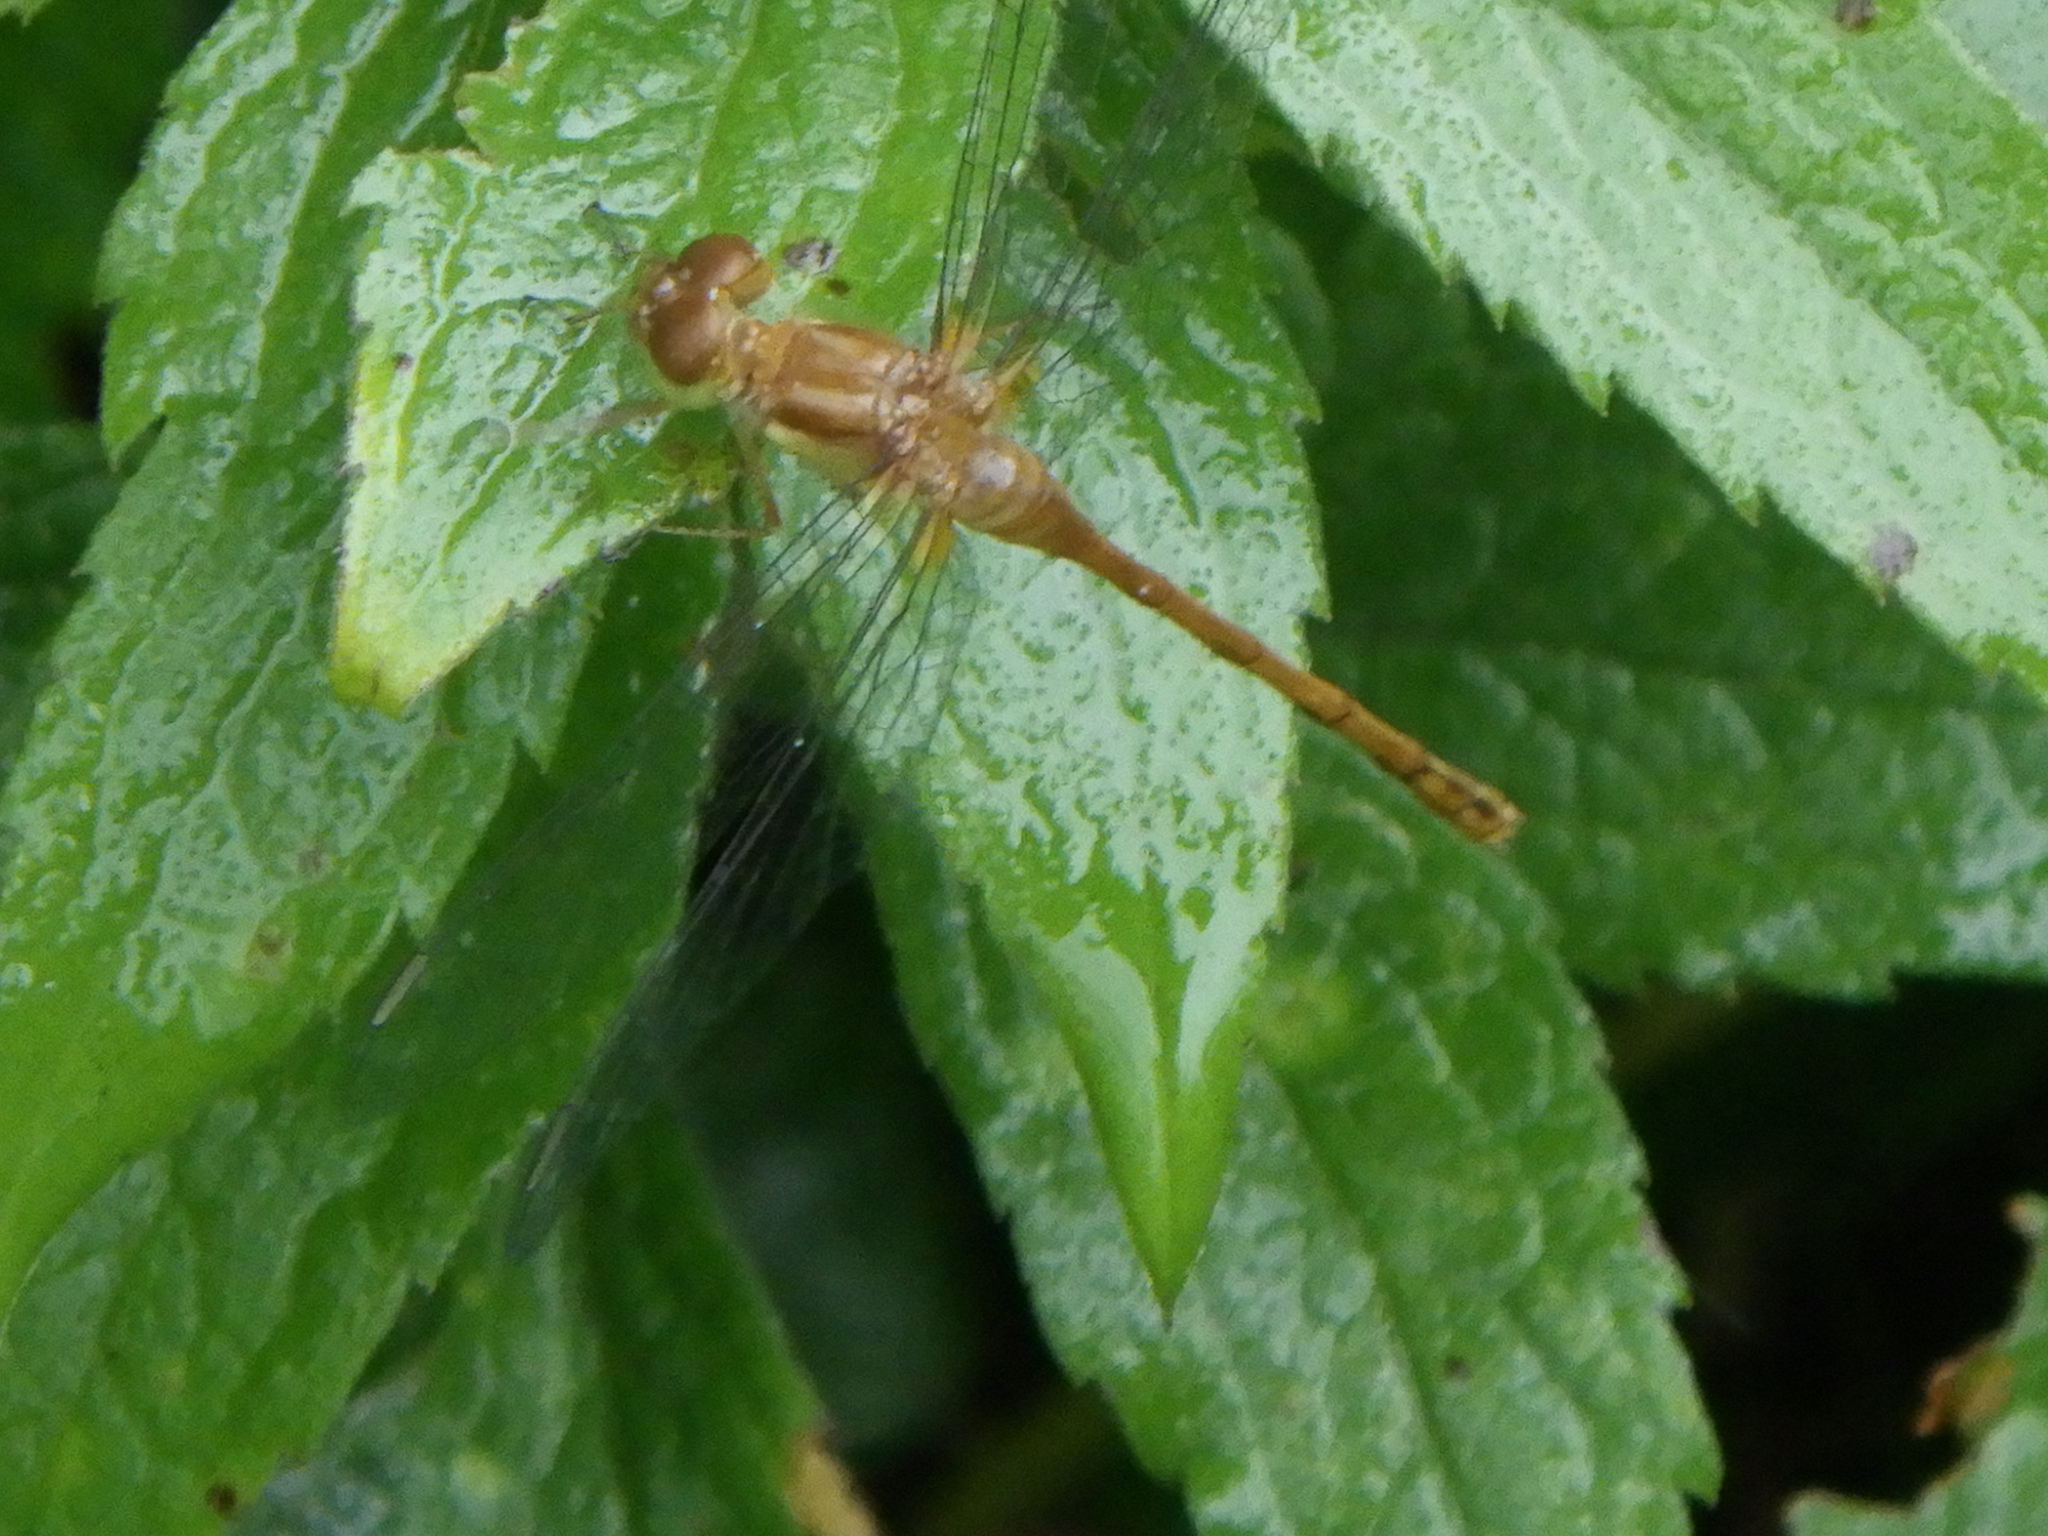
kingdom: Animalia
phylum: Arthropoda
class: Insecta
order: Odonata
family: Libellulidae
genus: Sympetrum
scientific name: Sympetrum vicinum
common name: Autumn meadowhawk
